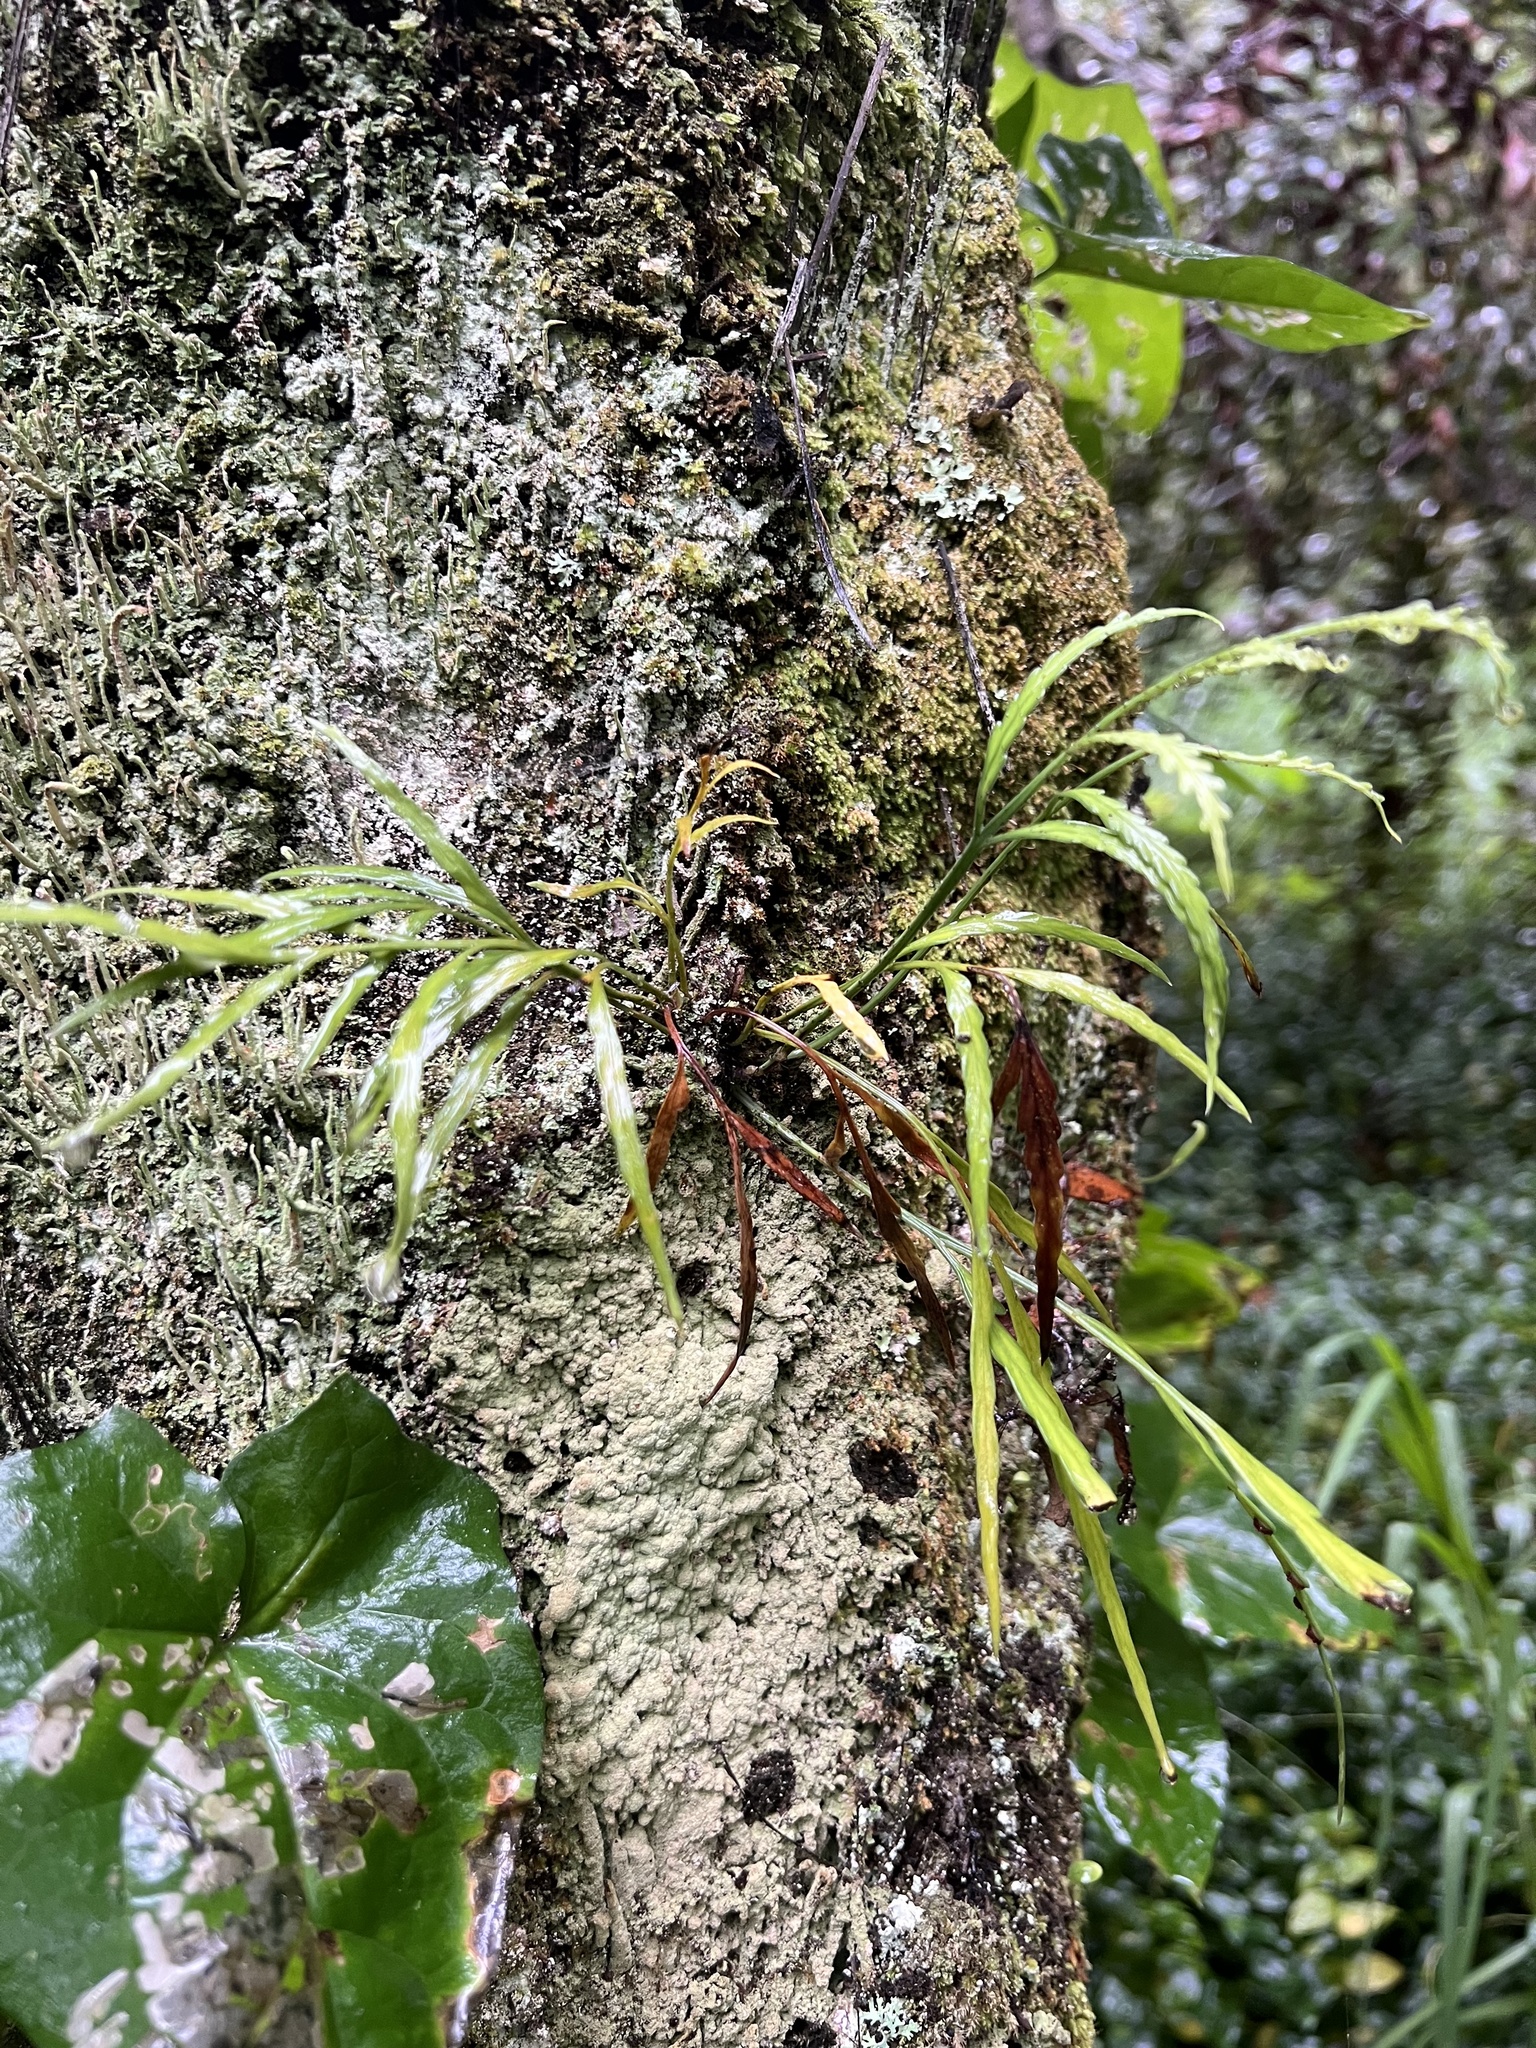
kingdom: Plantae
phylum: Tracheophyta
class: Polypodiopsida
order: Polypodiales
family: Aspleniaceae
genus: Asplenium
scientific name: Asplenium flaccidum
